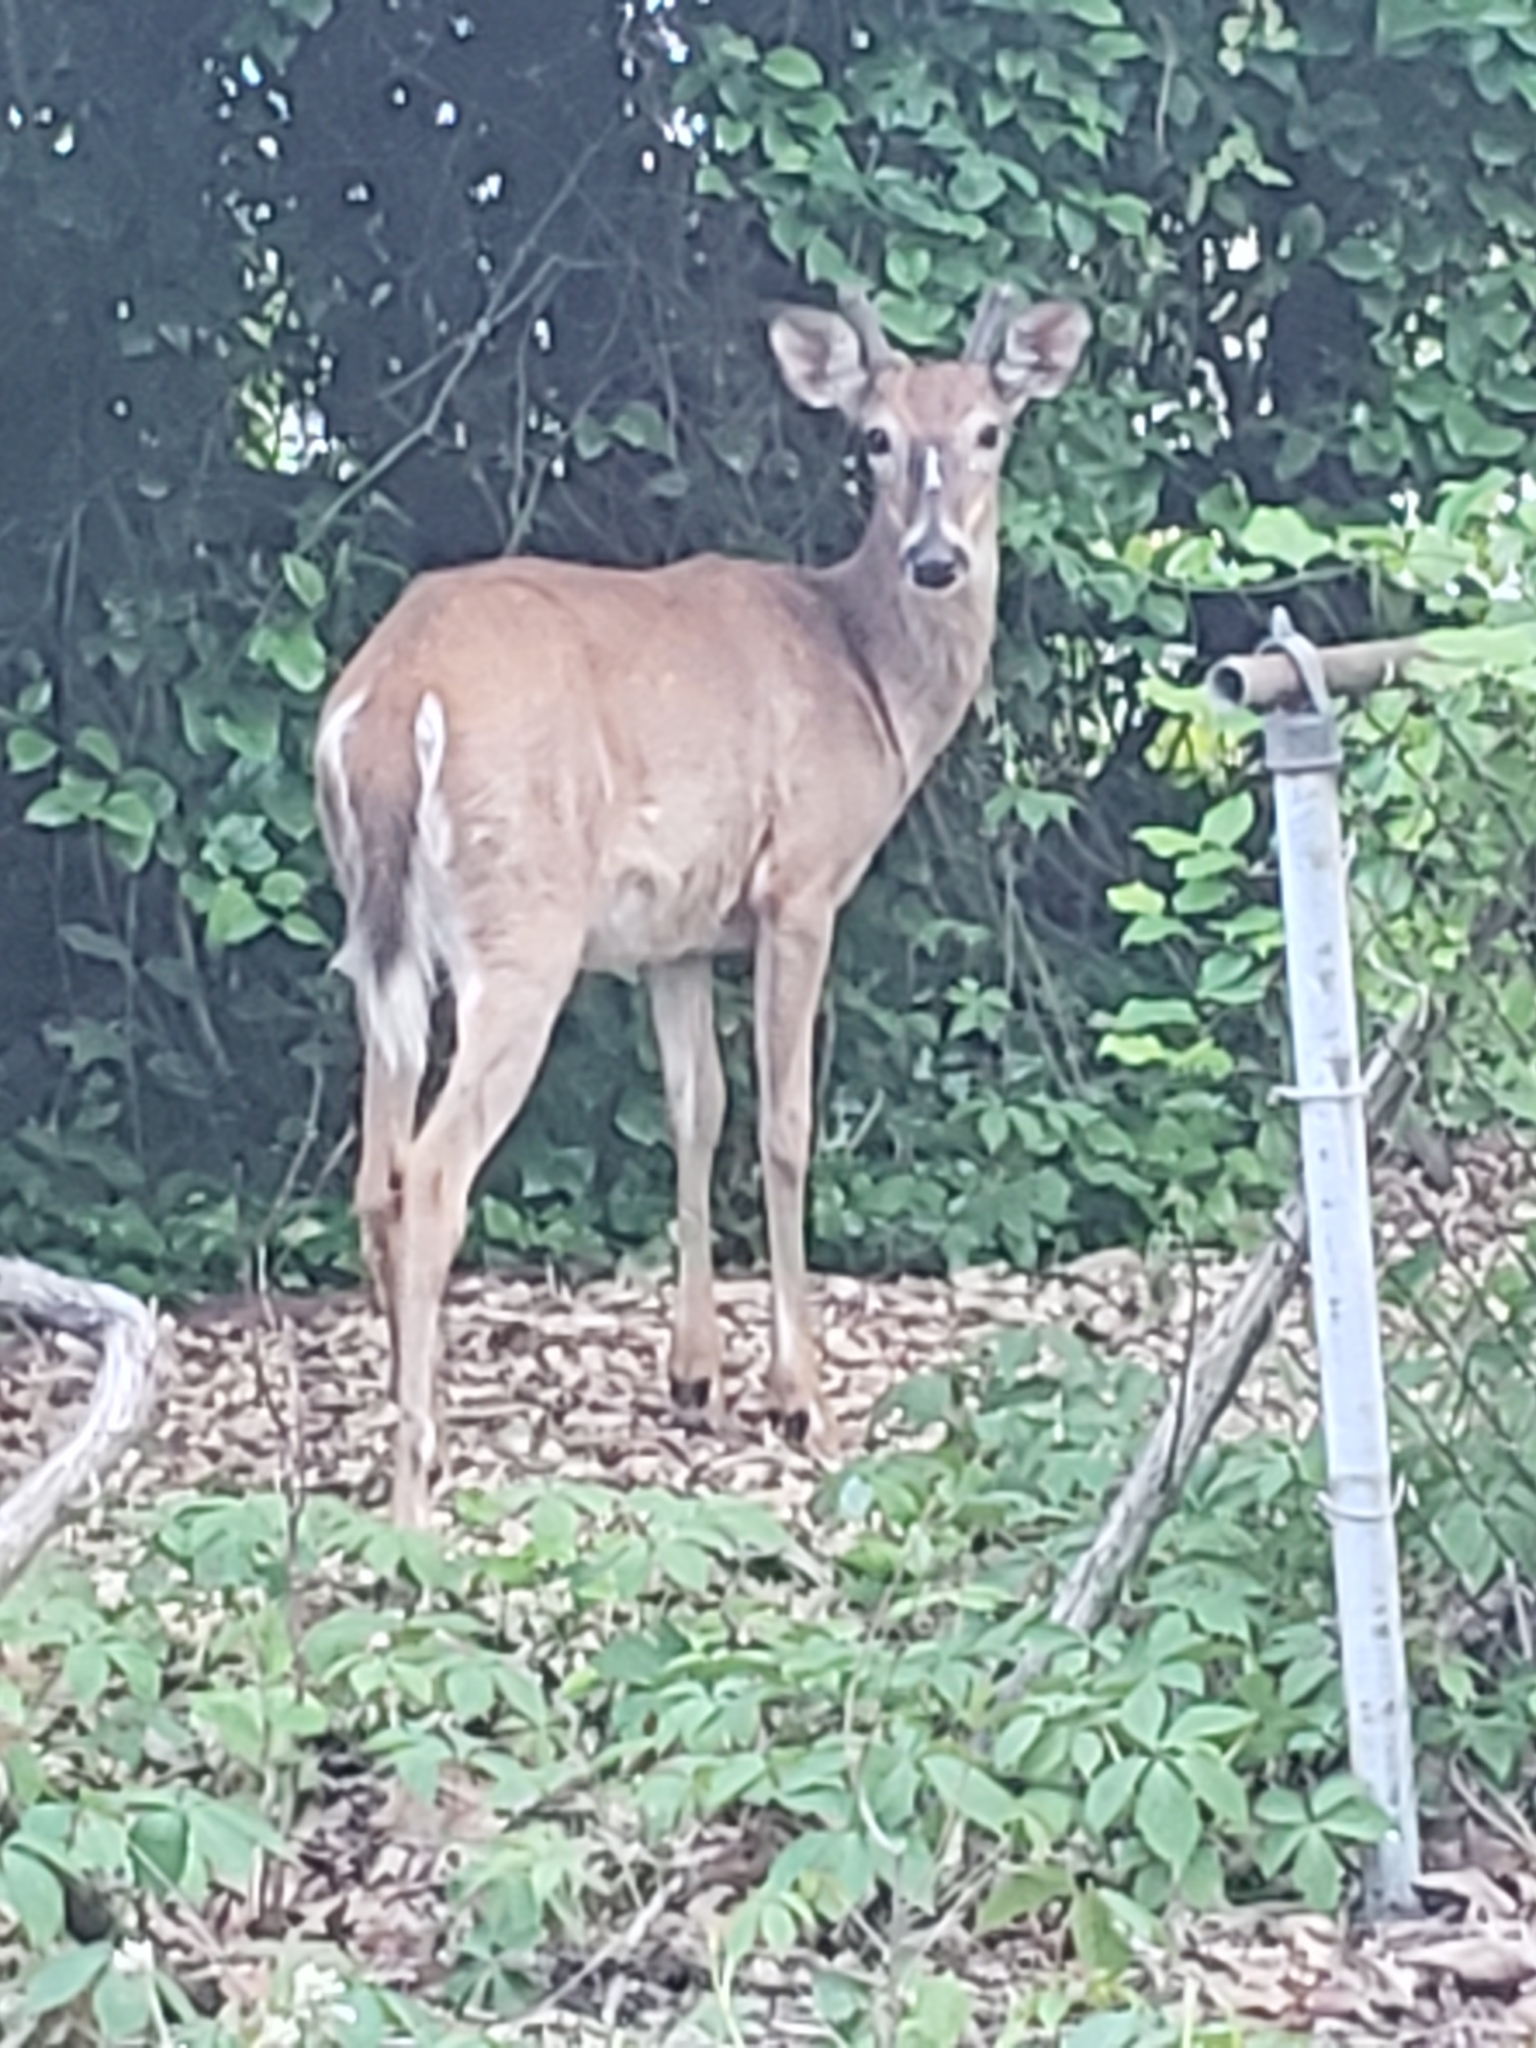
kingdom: Animalia
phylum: Chordata
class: Mammalia
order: Artiodactyla
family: Cervidae
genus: Odocoileus
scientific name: Odocoileus virginianus
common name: White-tailed deer
